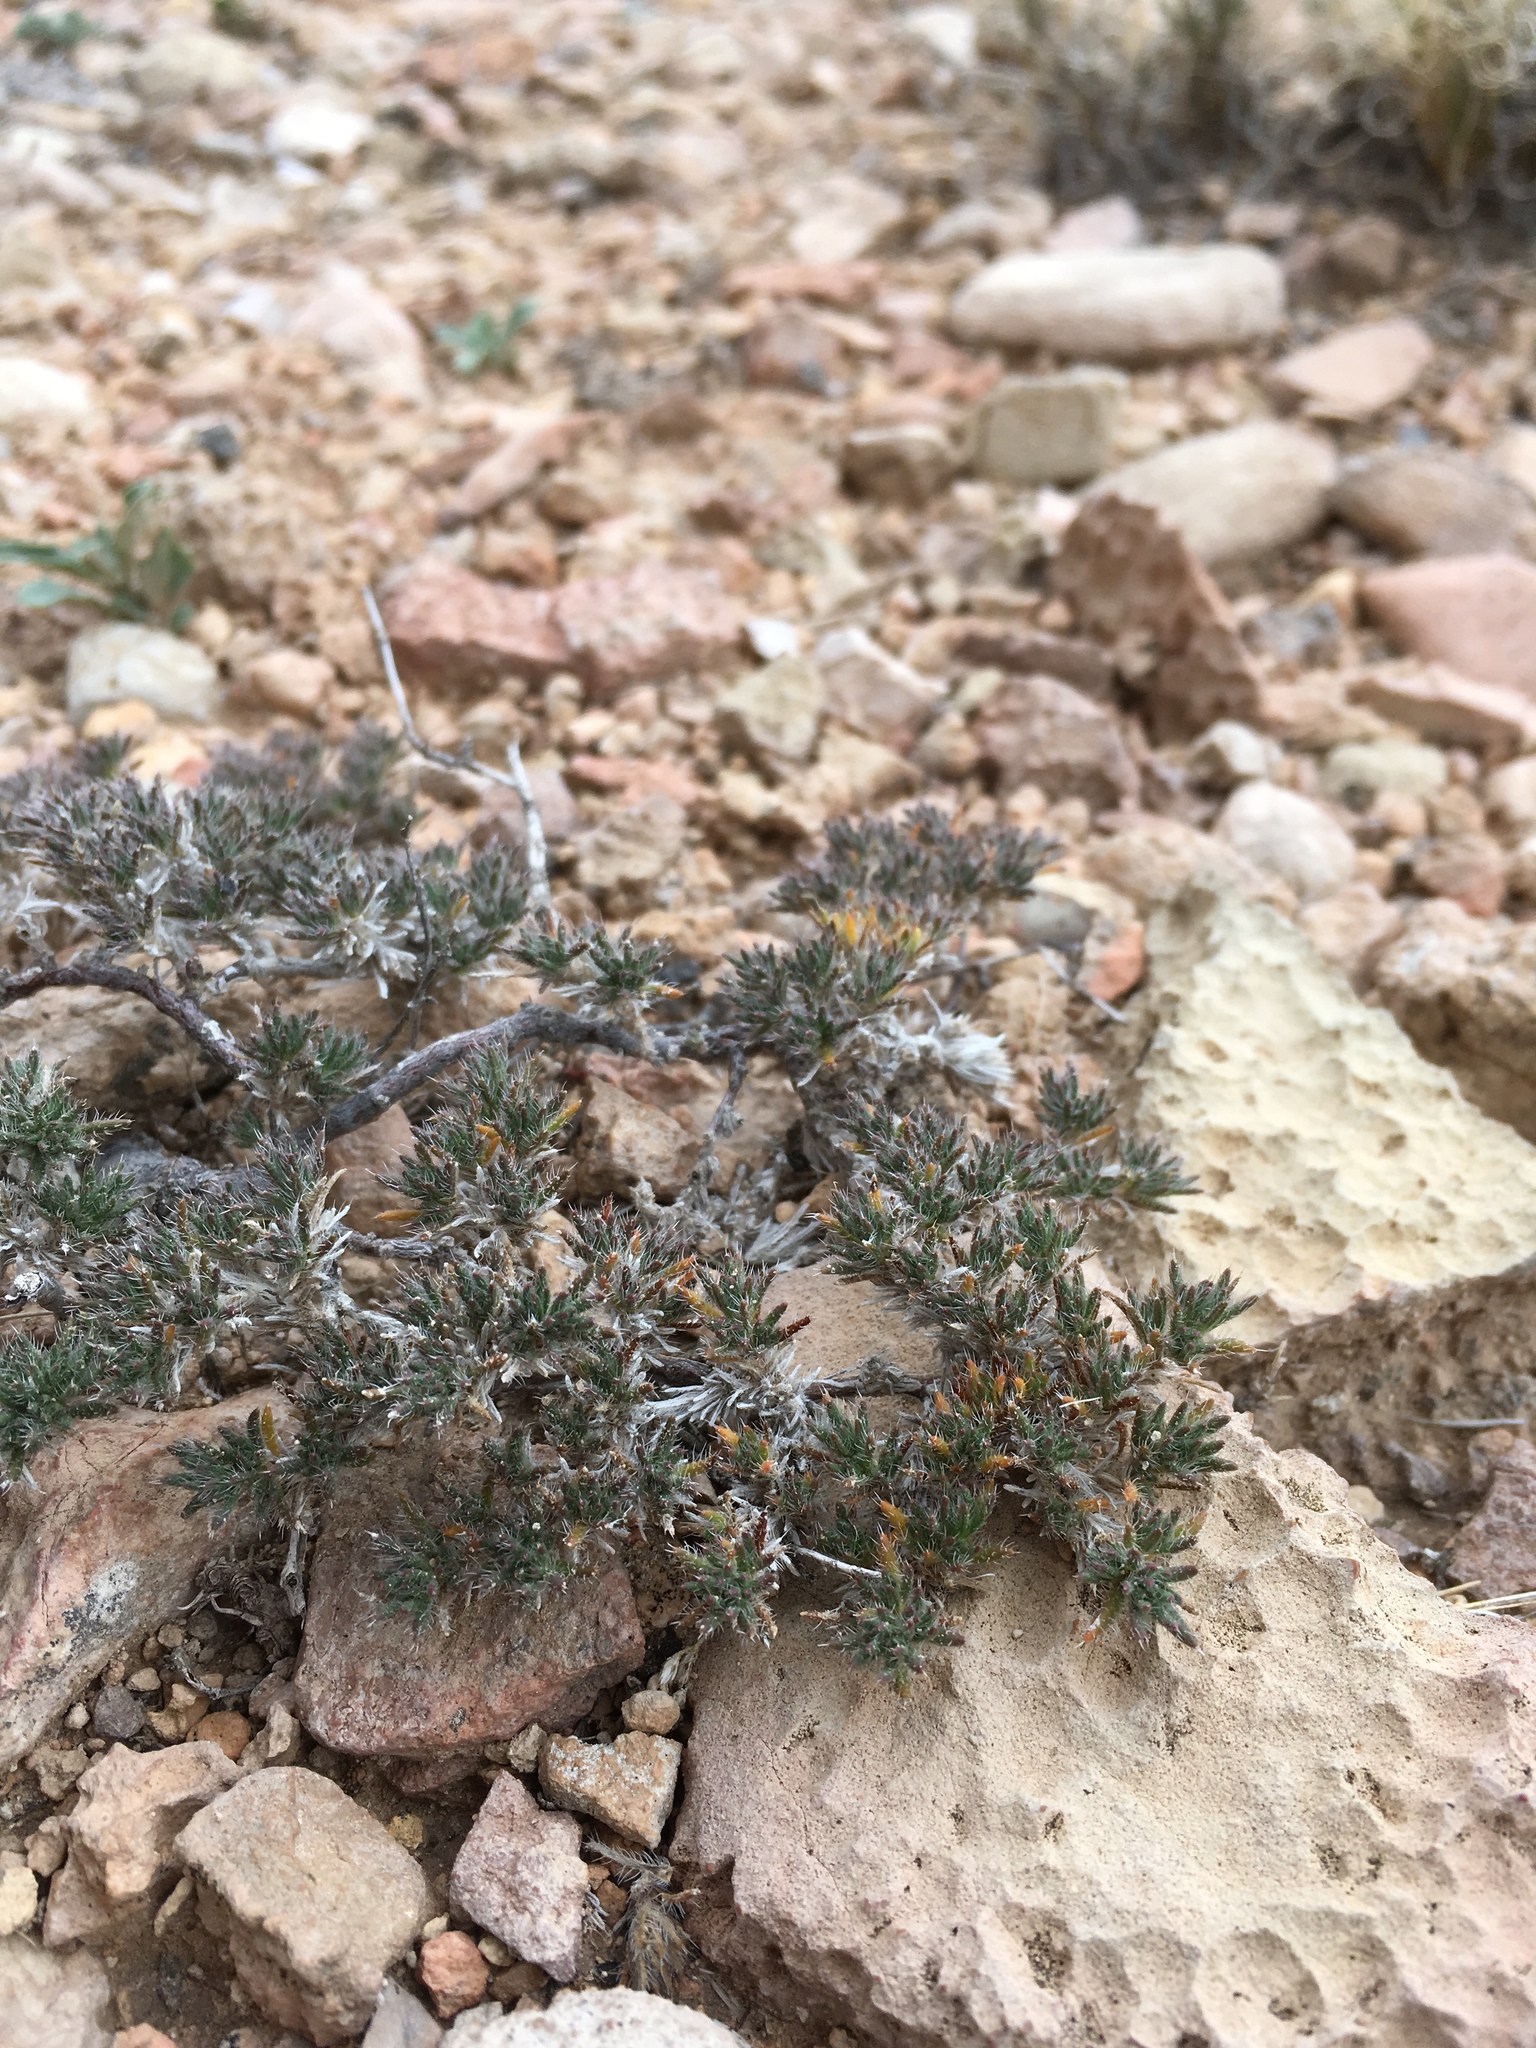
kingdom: Plantae
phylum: Tracheophyta
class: Magnoliopsida
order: Boraginales
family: Ehretiaceae
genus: Tiquilia
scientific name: Tiquilia hispidissima
